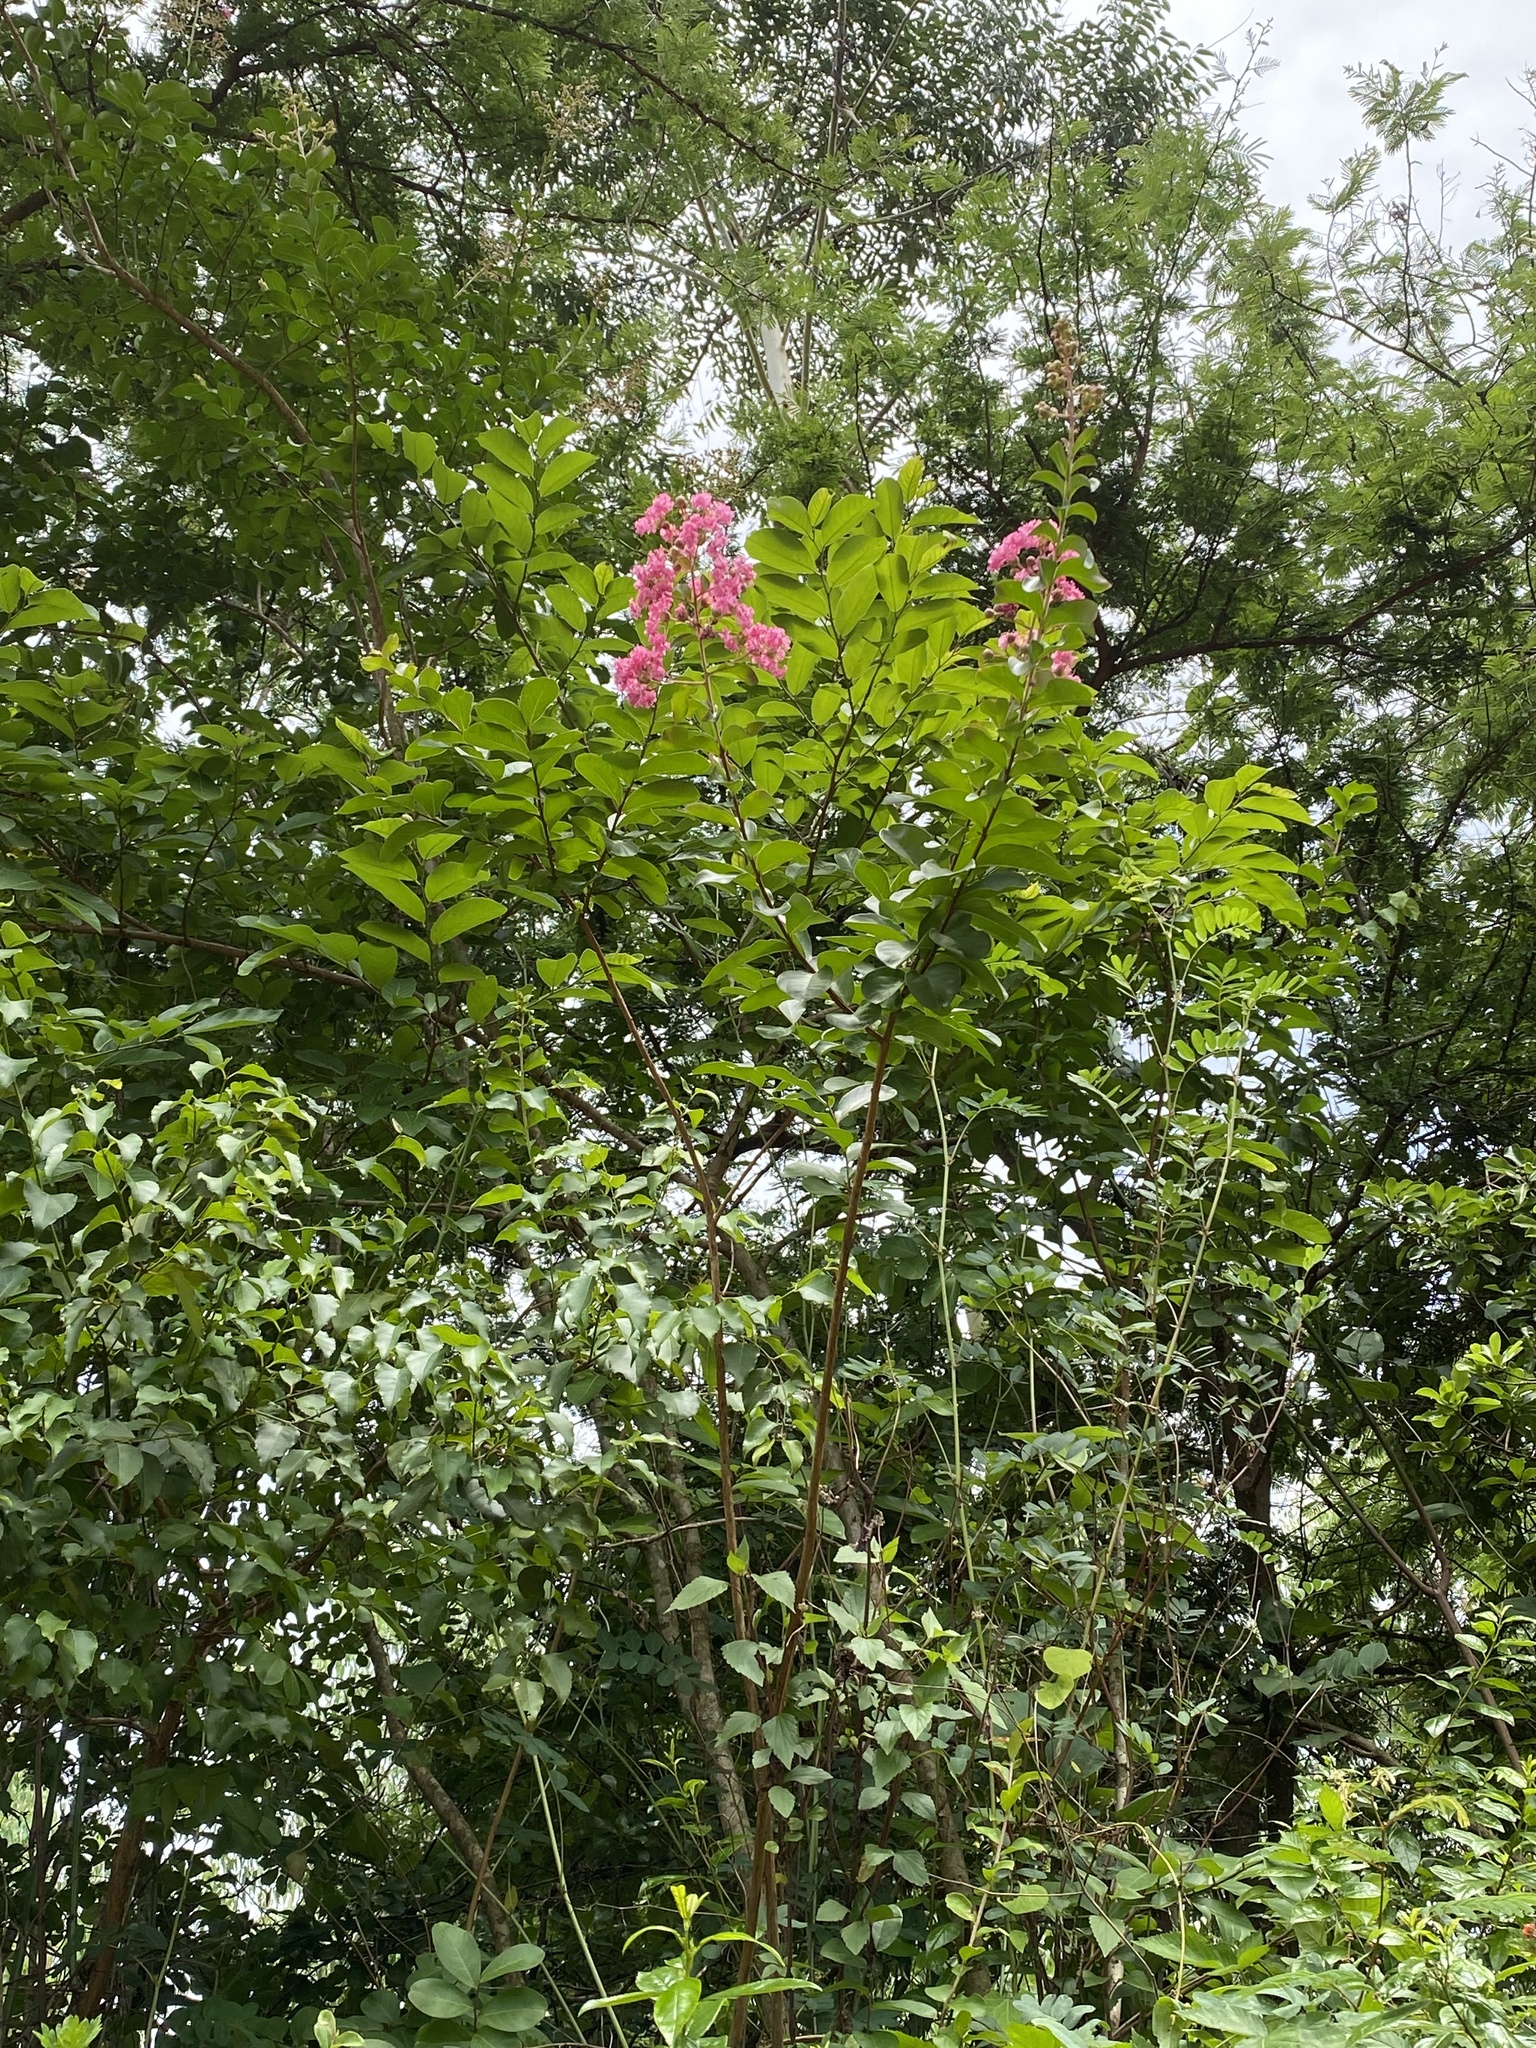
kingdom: Plantae
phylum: Tracheophyta
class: Magnoliopsida
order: Myrtales
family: Lythraceae
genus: Lagerstroemia
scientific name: Lagerstroemia indica
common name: Crape-myrtle
